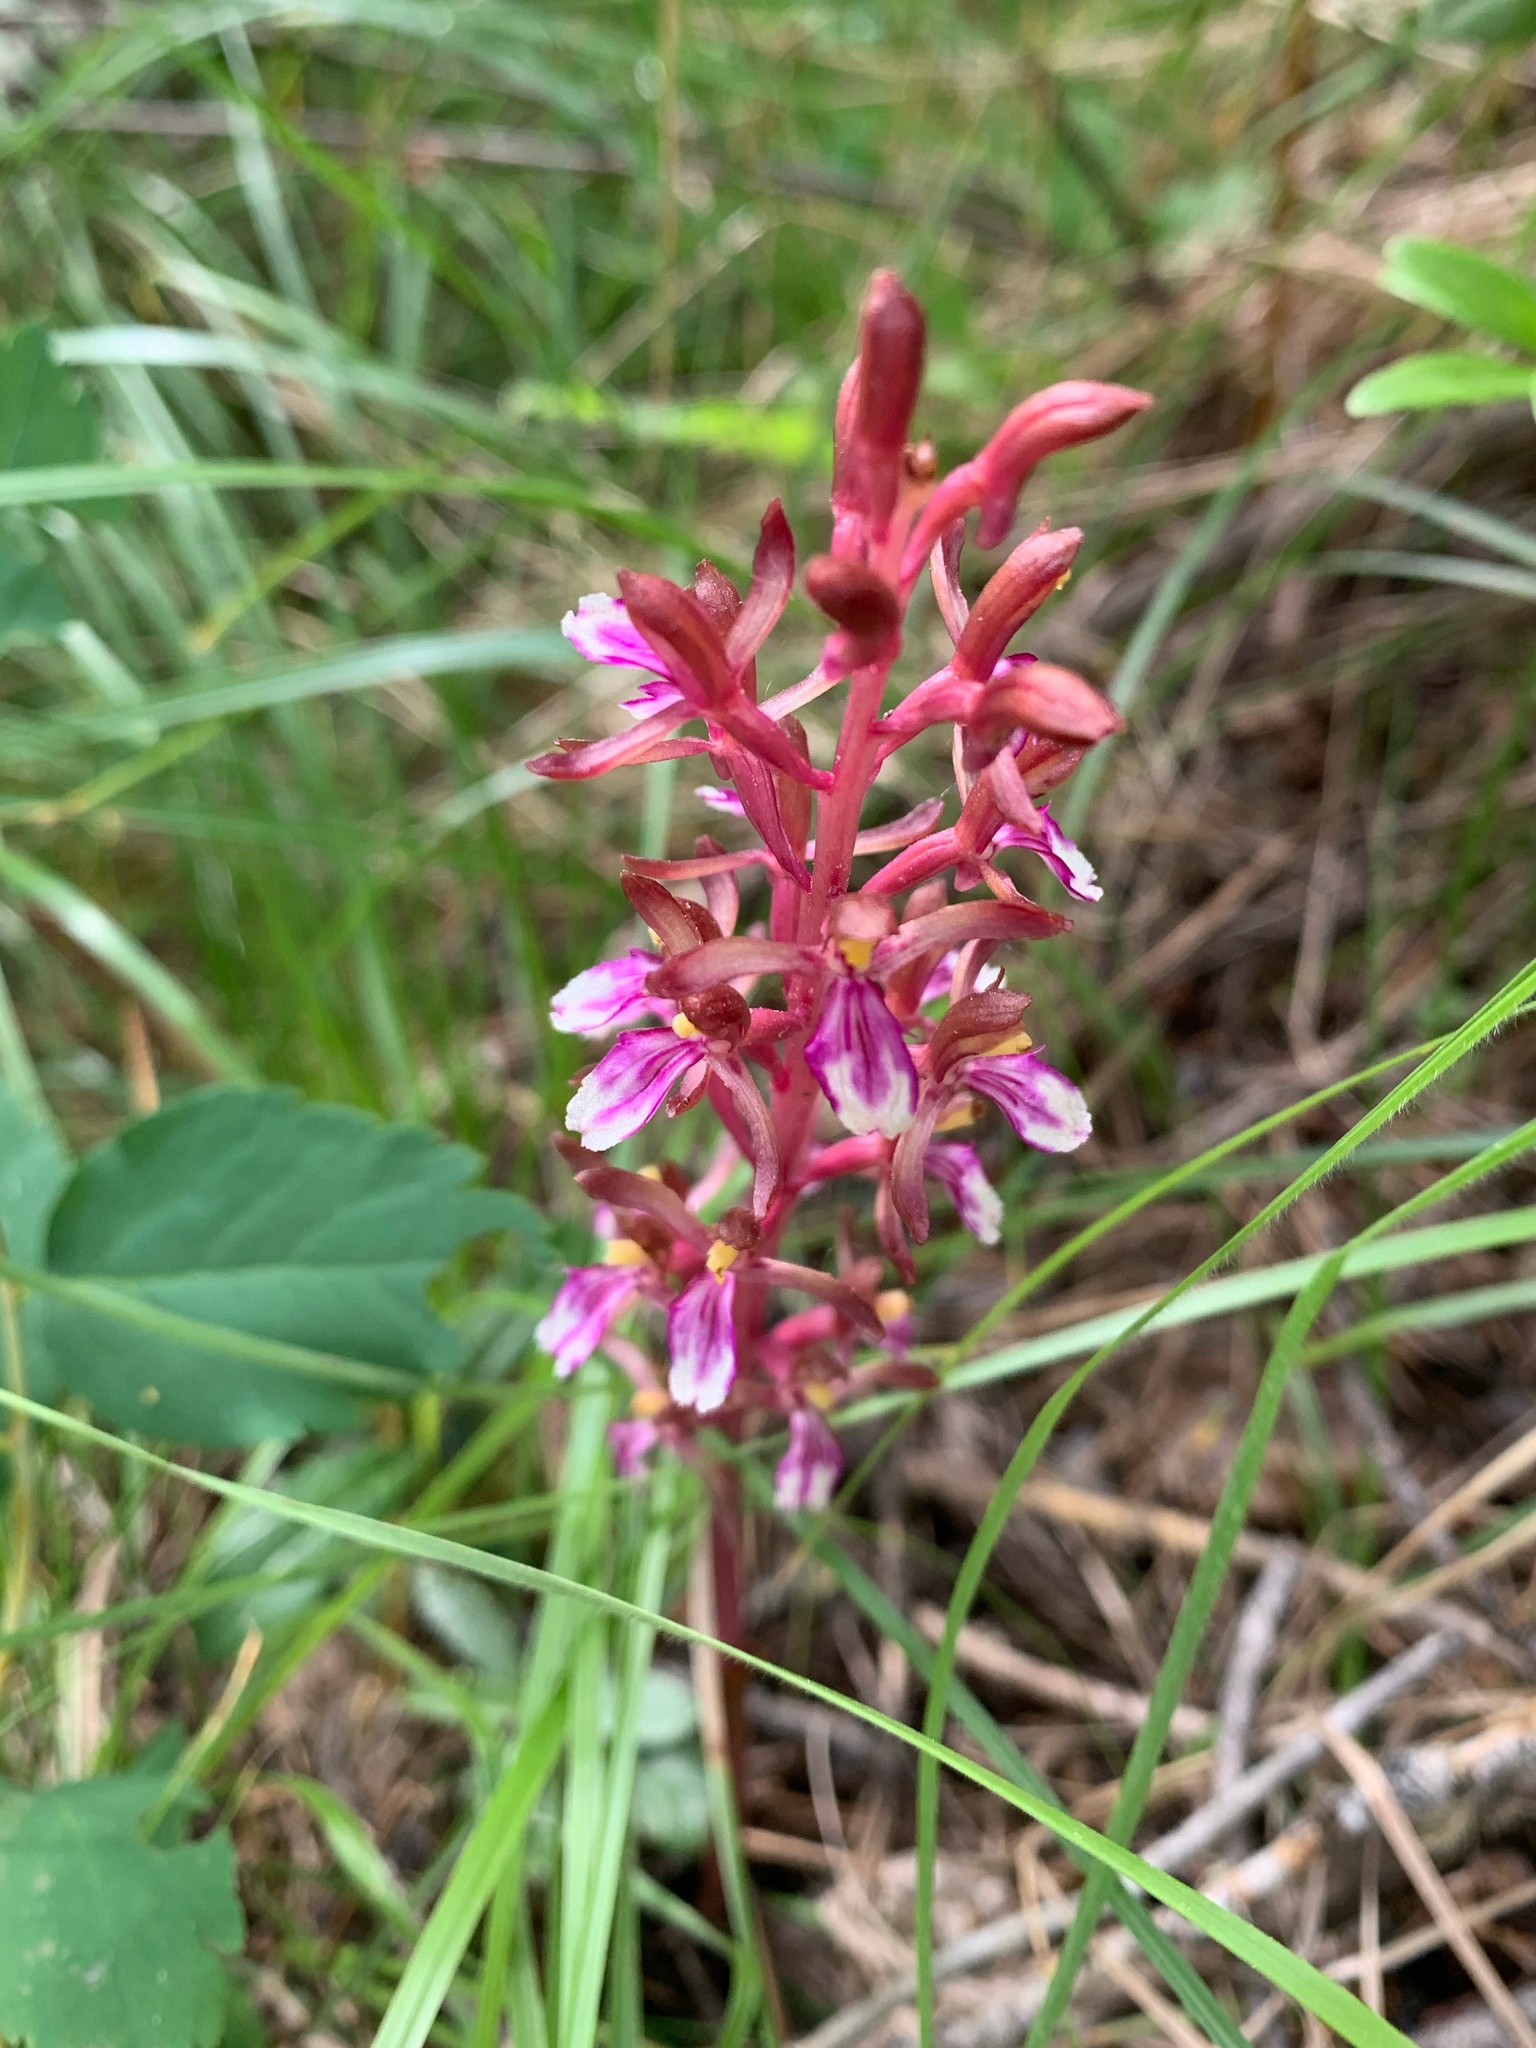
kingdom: Plantae
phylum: Tracheophyta
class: Liliopsida
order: Asparagales
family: Orchidaceae
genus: Corallorhiza
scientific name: Corallorhiza mertensiana
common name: Pacific coralroot
